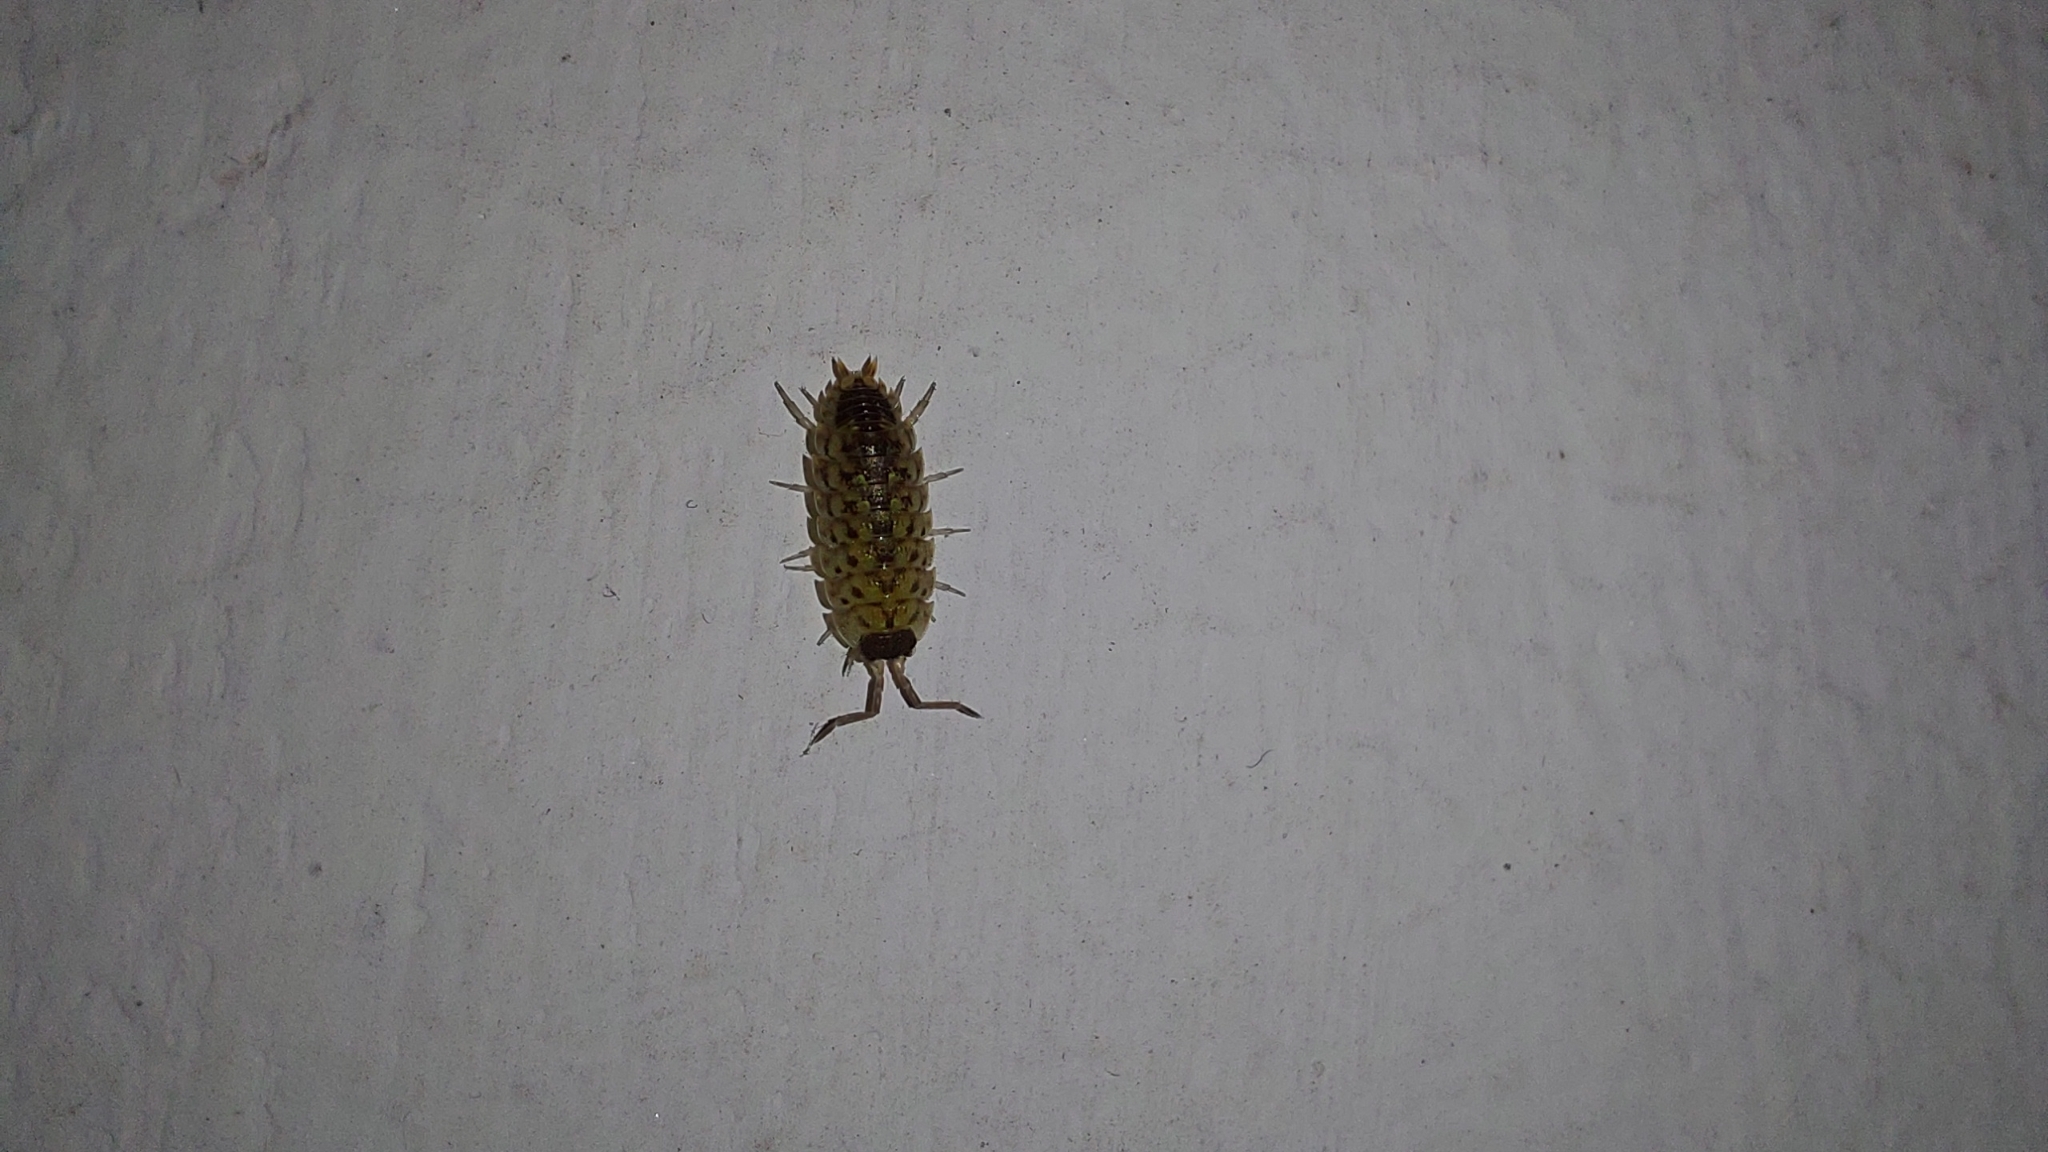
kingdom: Animalia
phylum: Arthropoda
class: Malacostraca
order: Isopoda
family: Porcellionidae
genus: Porcellio
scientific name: Porcellio spinicornis
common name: Painted woodlouse
